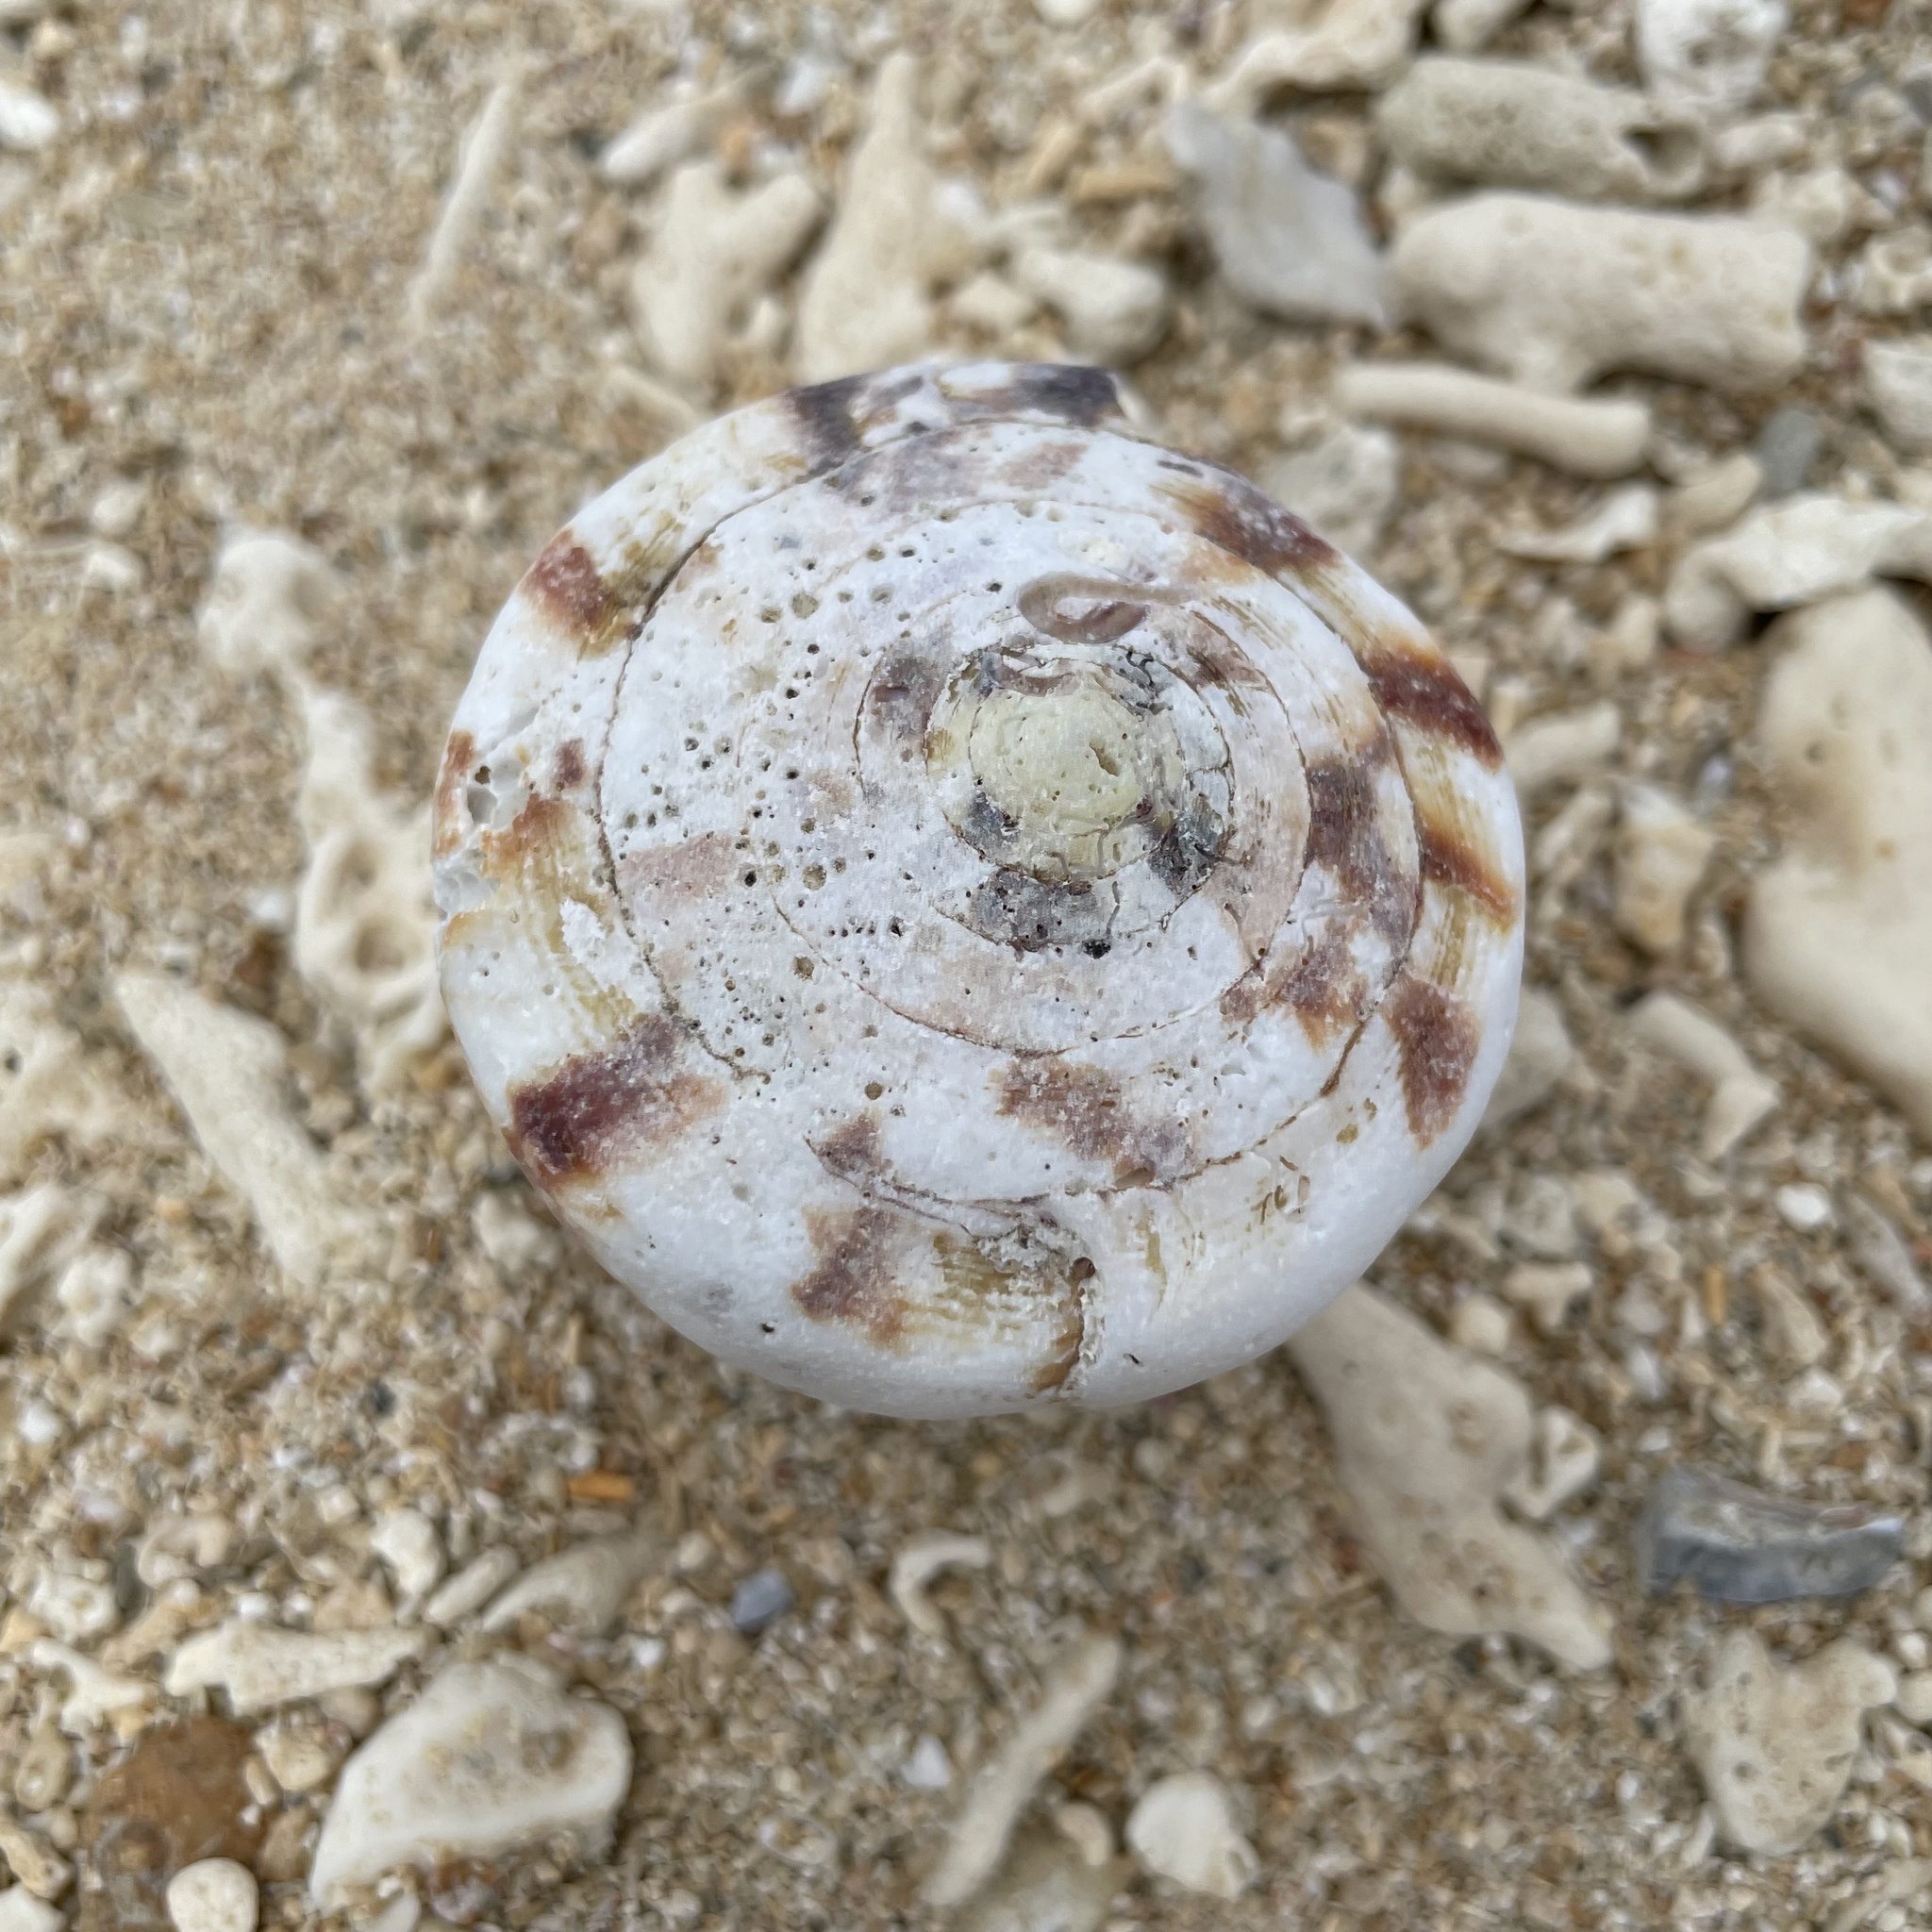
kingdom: Animalia
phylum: Mollusca
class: Gastropoda
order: Neogastropoda
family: Conidae
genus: Conus
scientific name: Conus vexillum
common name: Flag cone
